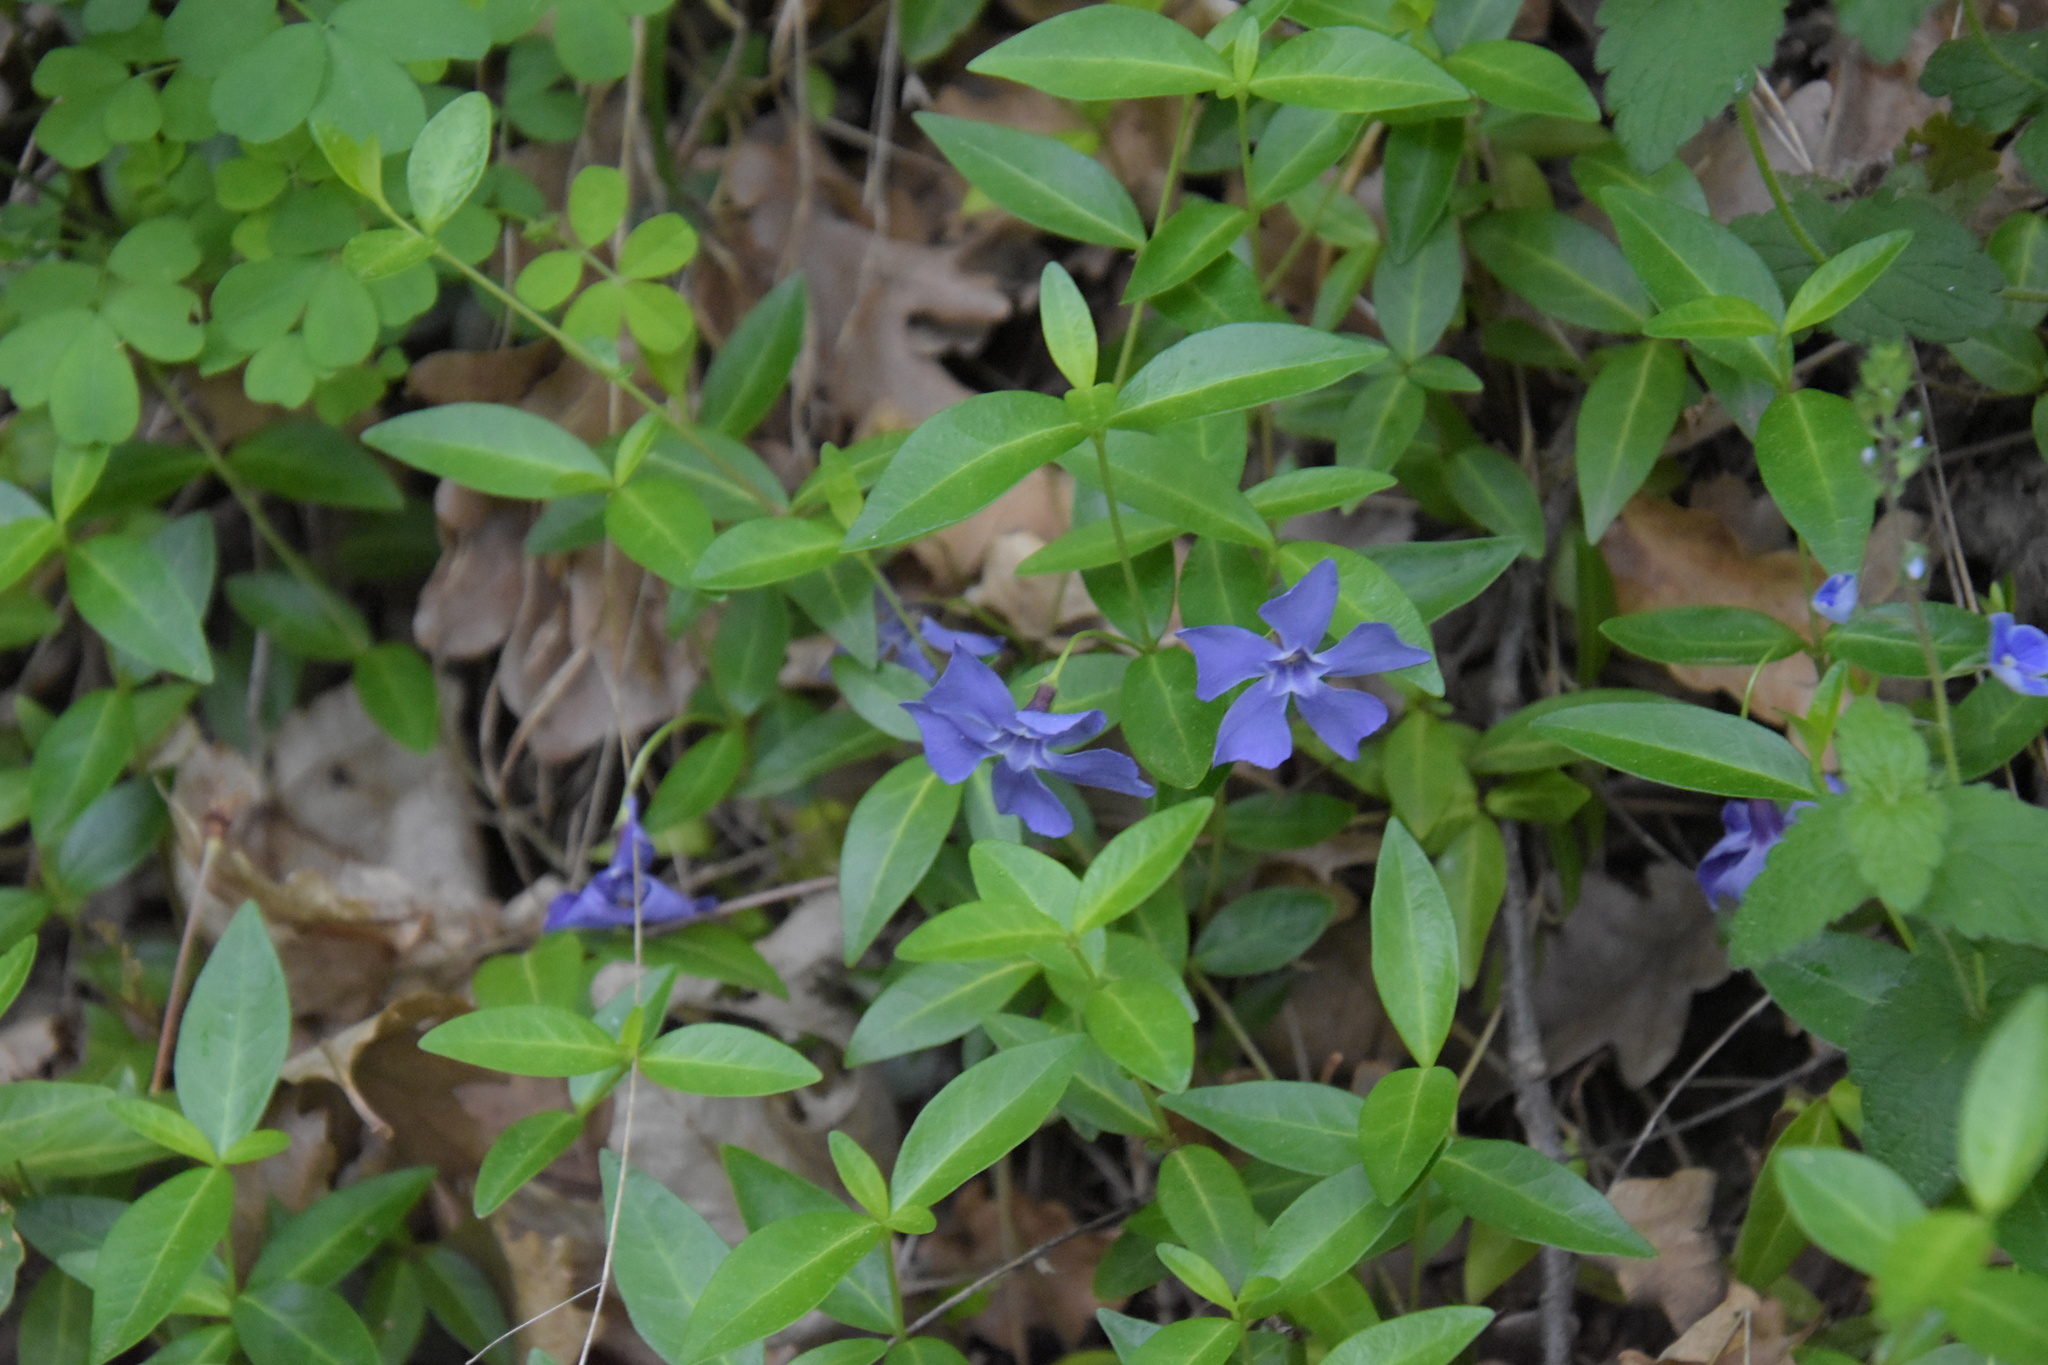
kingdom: Plantae
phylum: Tracheophyta
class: Magnoliopsida
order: Gentianales
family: Apocynaceae
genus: Vinca
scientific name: Vinca minor
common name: Lesser periwinkle
